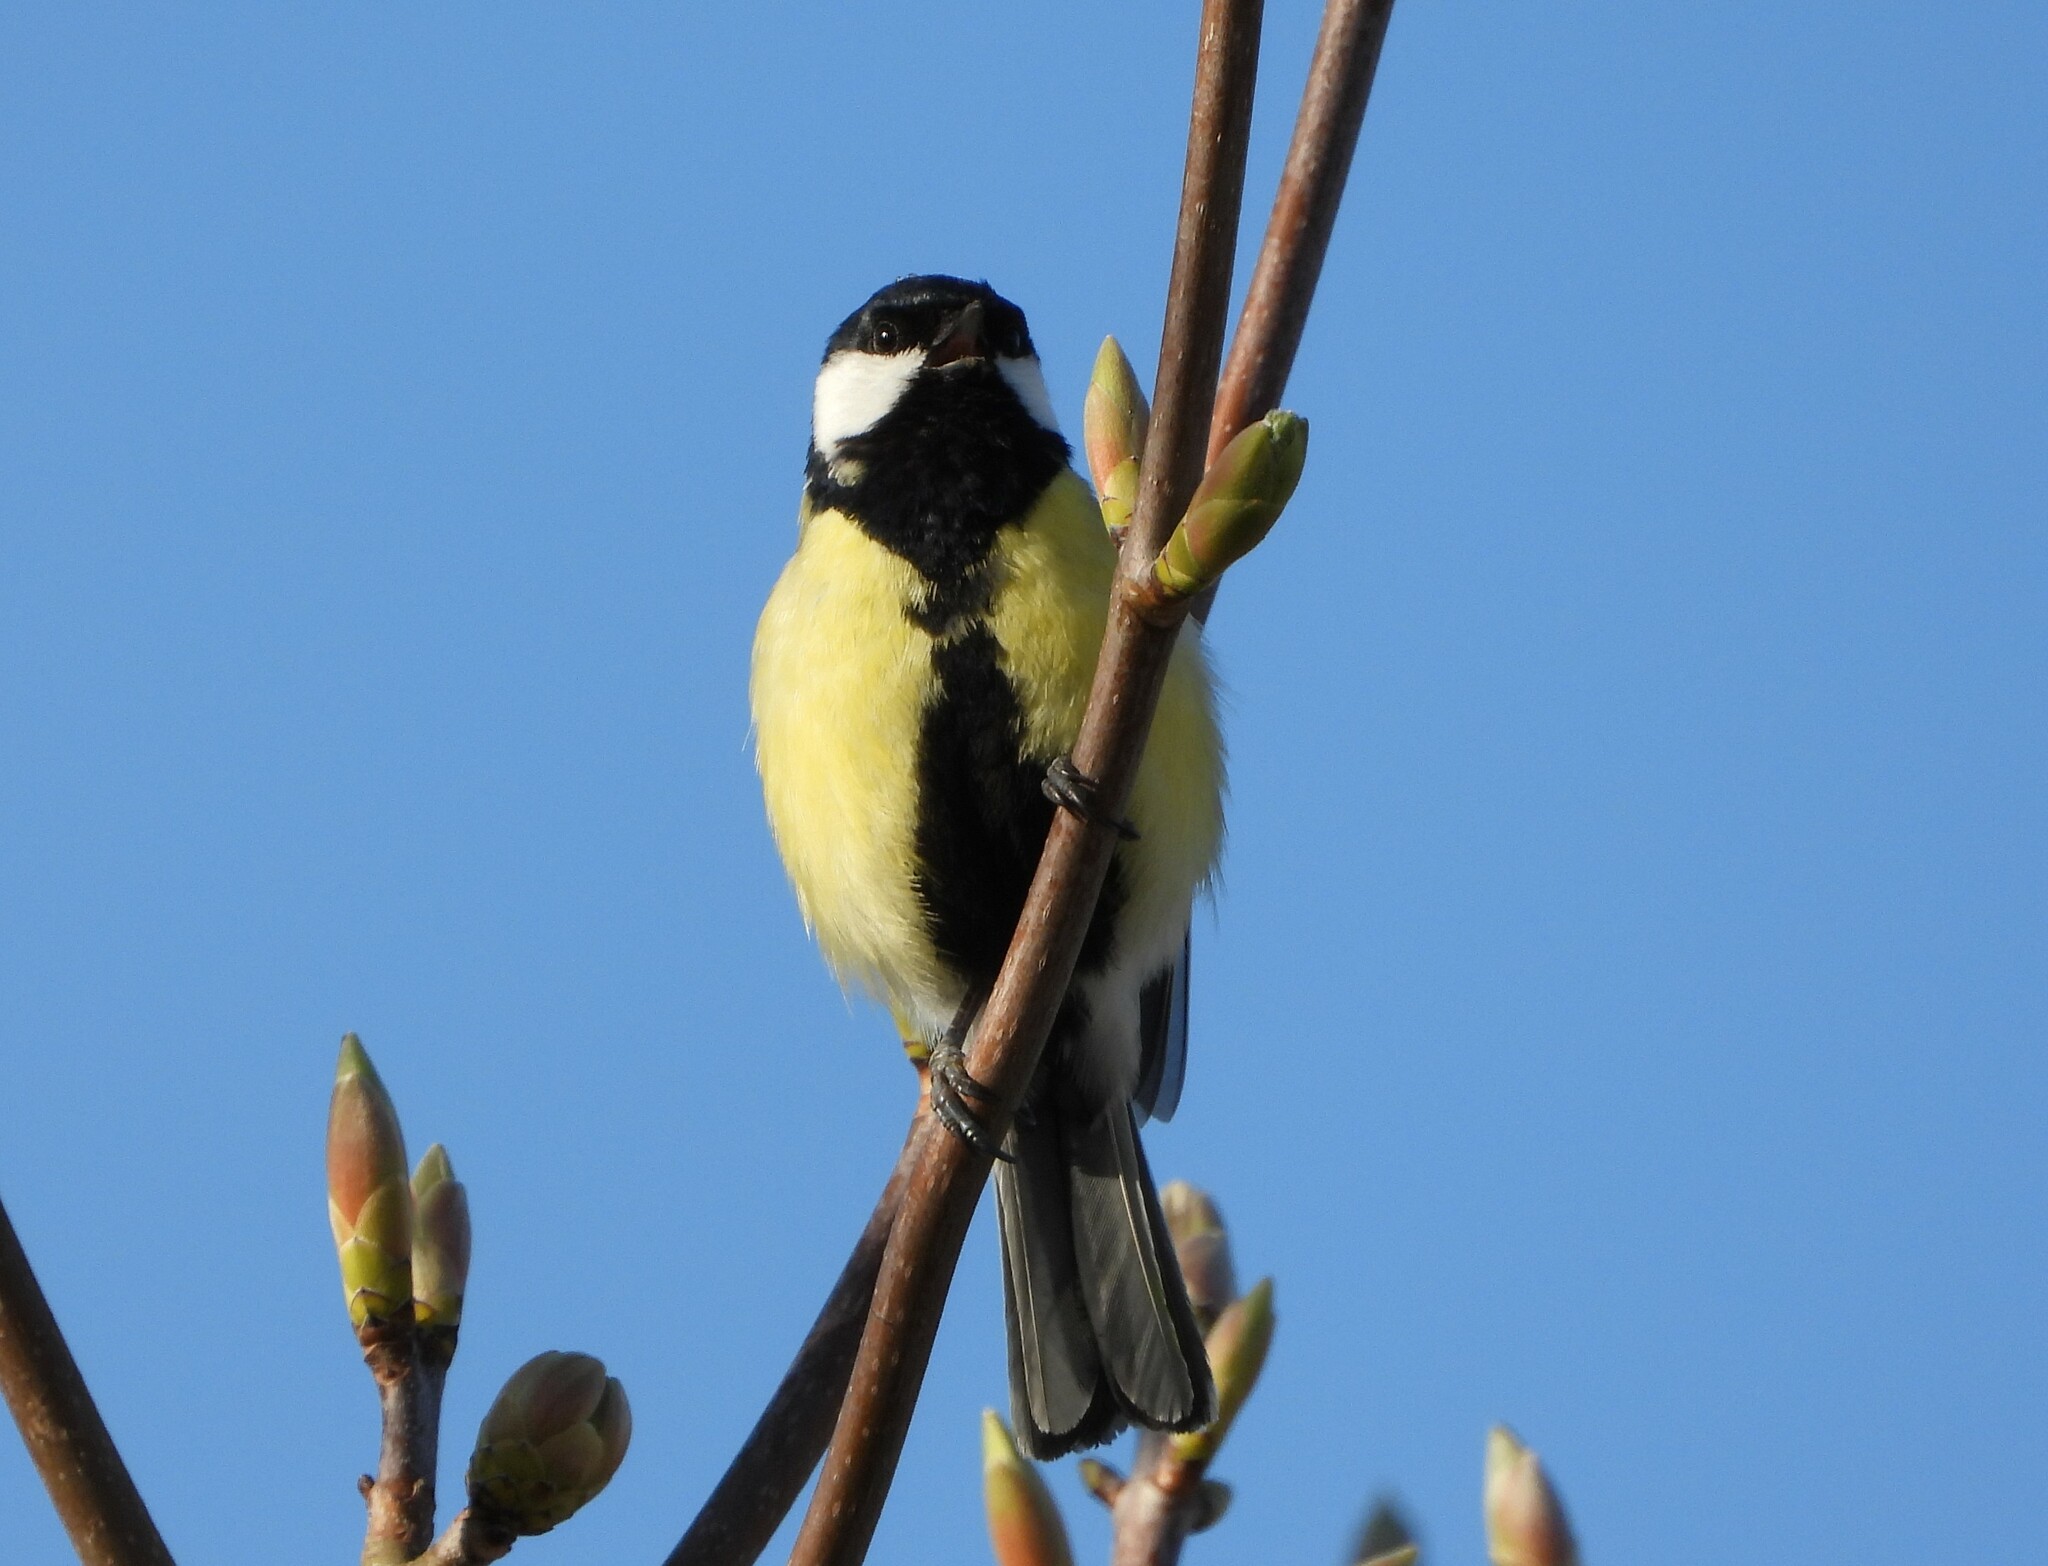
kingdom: Animalia
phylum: Chordata
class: Aves
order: Passeriformes
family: Paridae
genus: Parus
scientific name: Parus major
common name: Great tit
